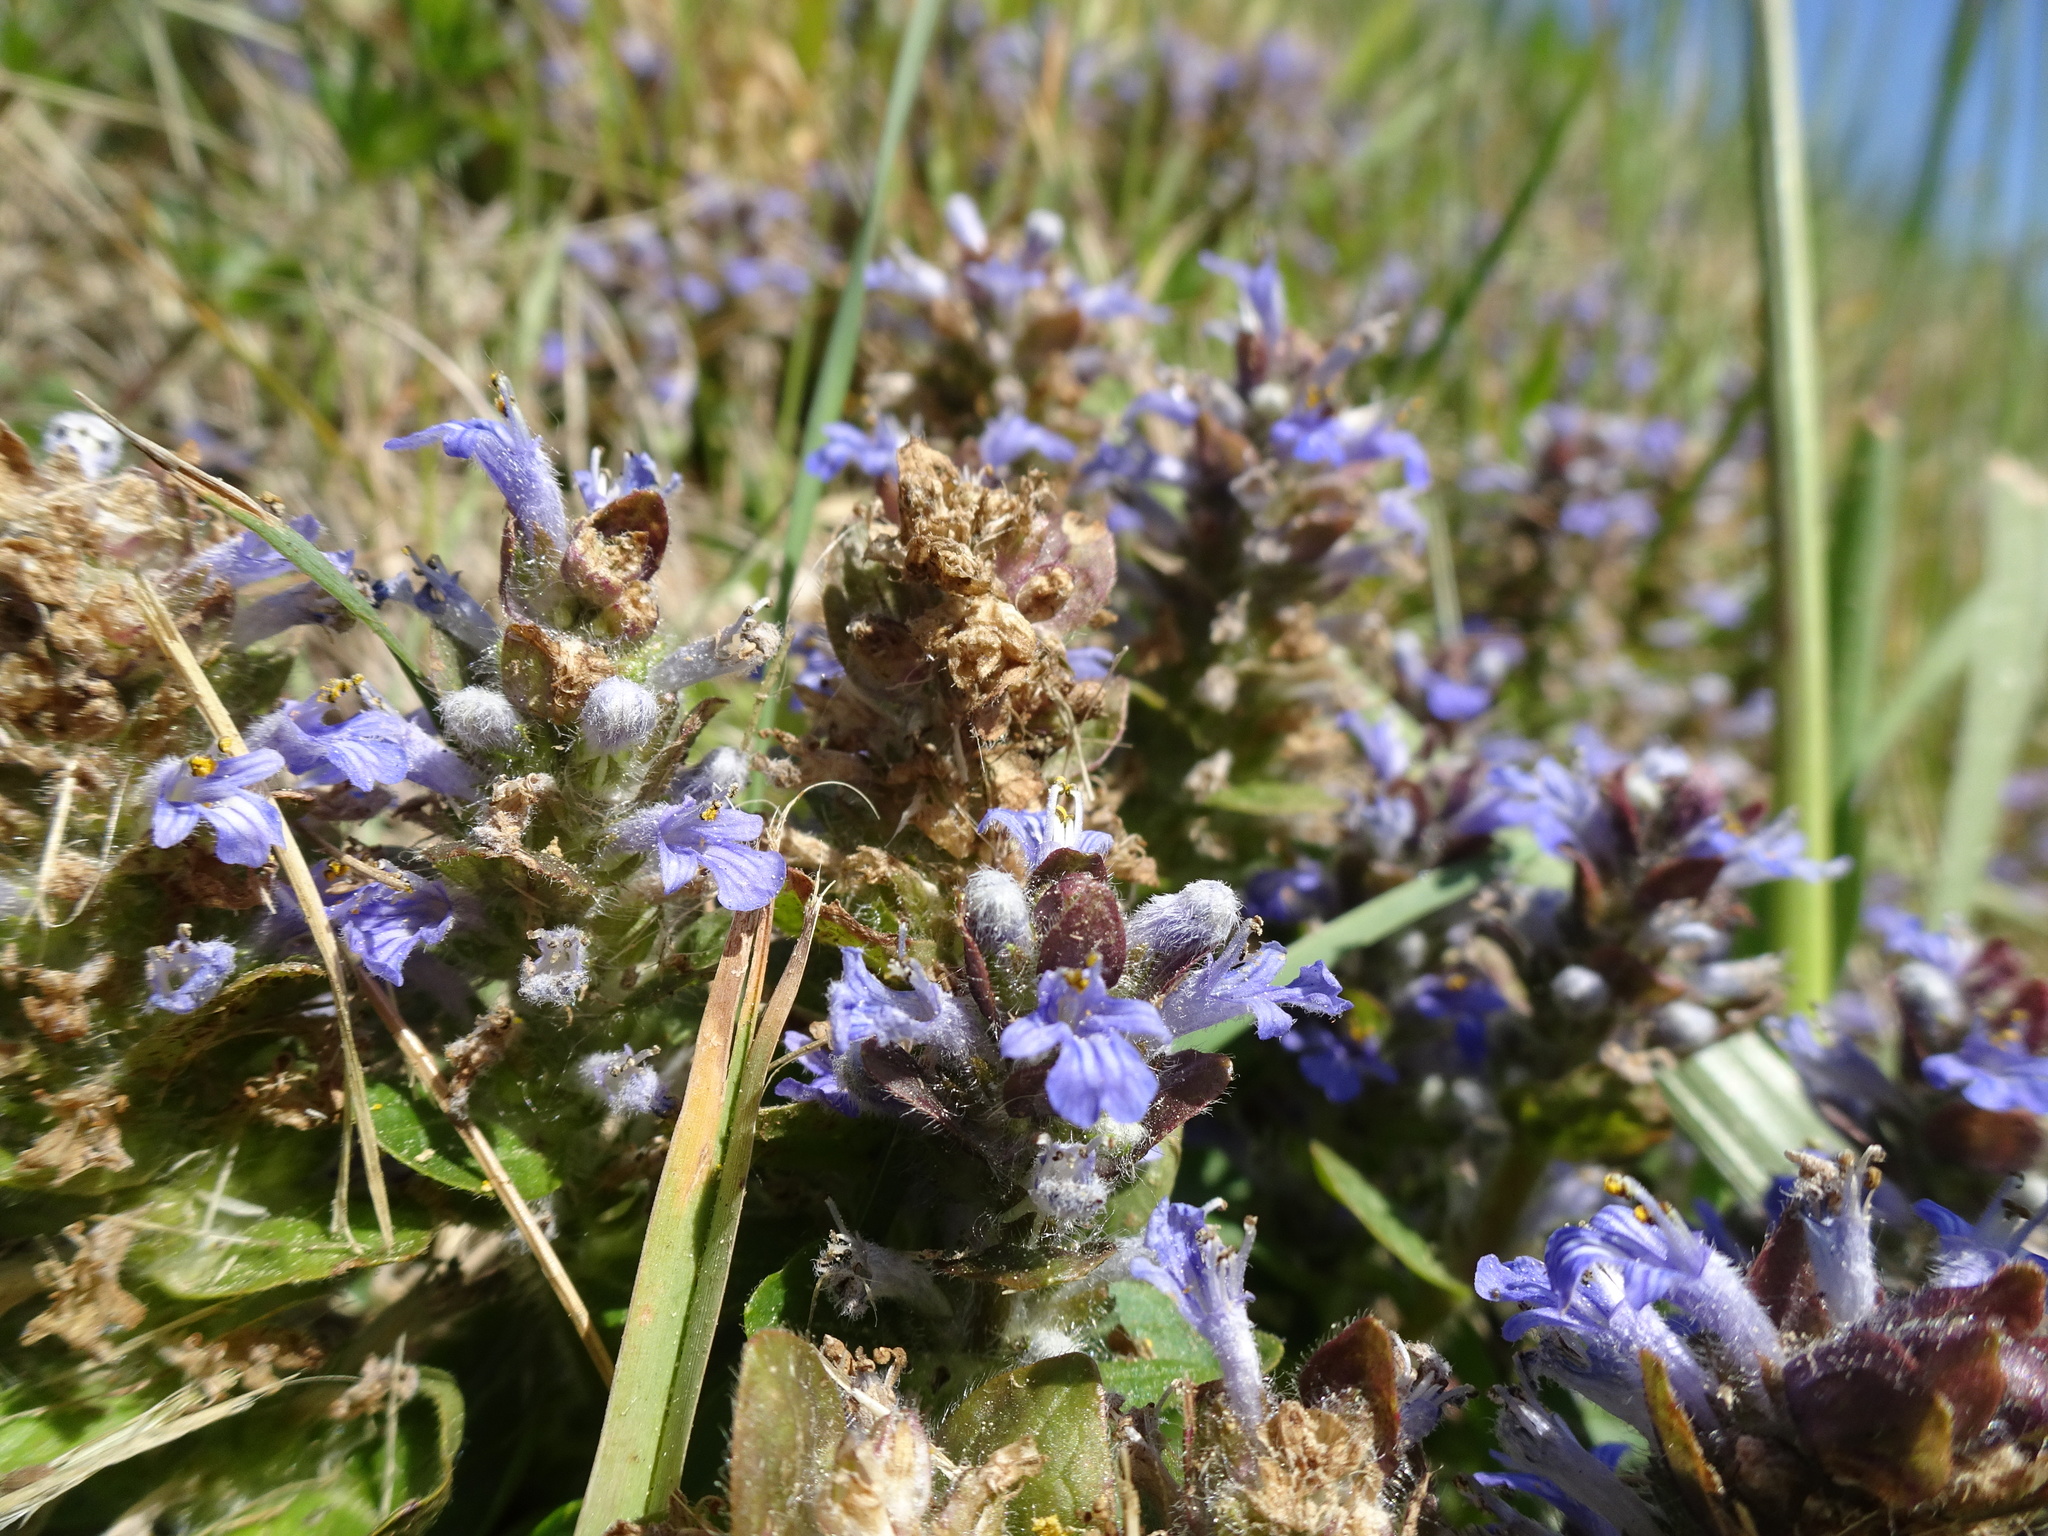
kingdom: Plantae
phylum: Tracheophyta
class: Magnoliopsida
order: Lamiales
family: Lamiaceae
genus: Ajuga
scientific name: Ajuga reptans
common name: Bugle
